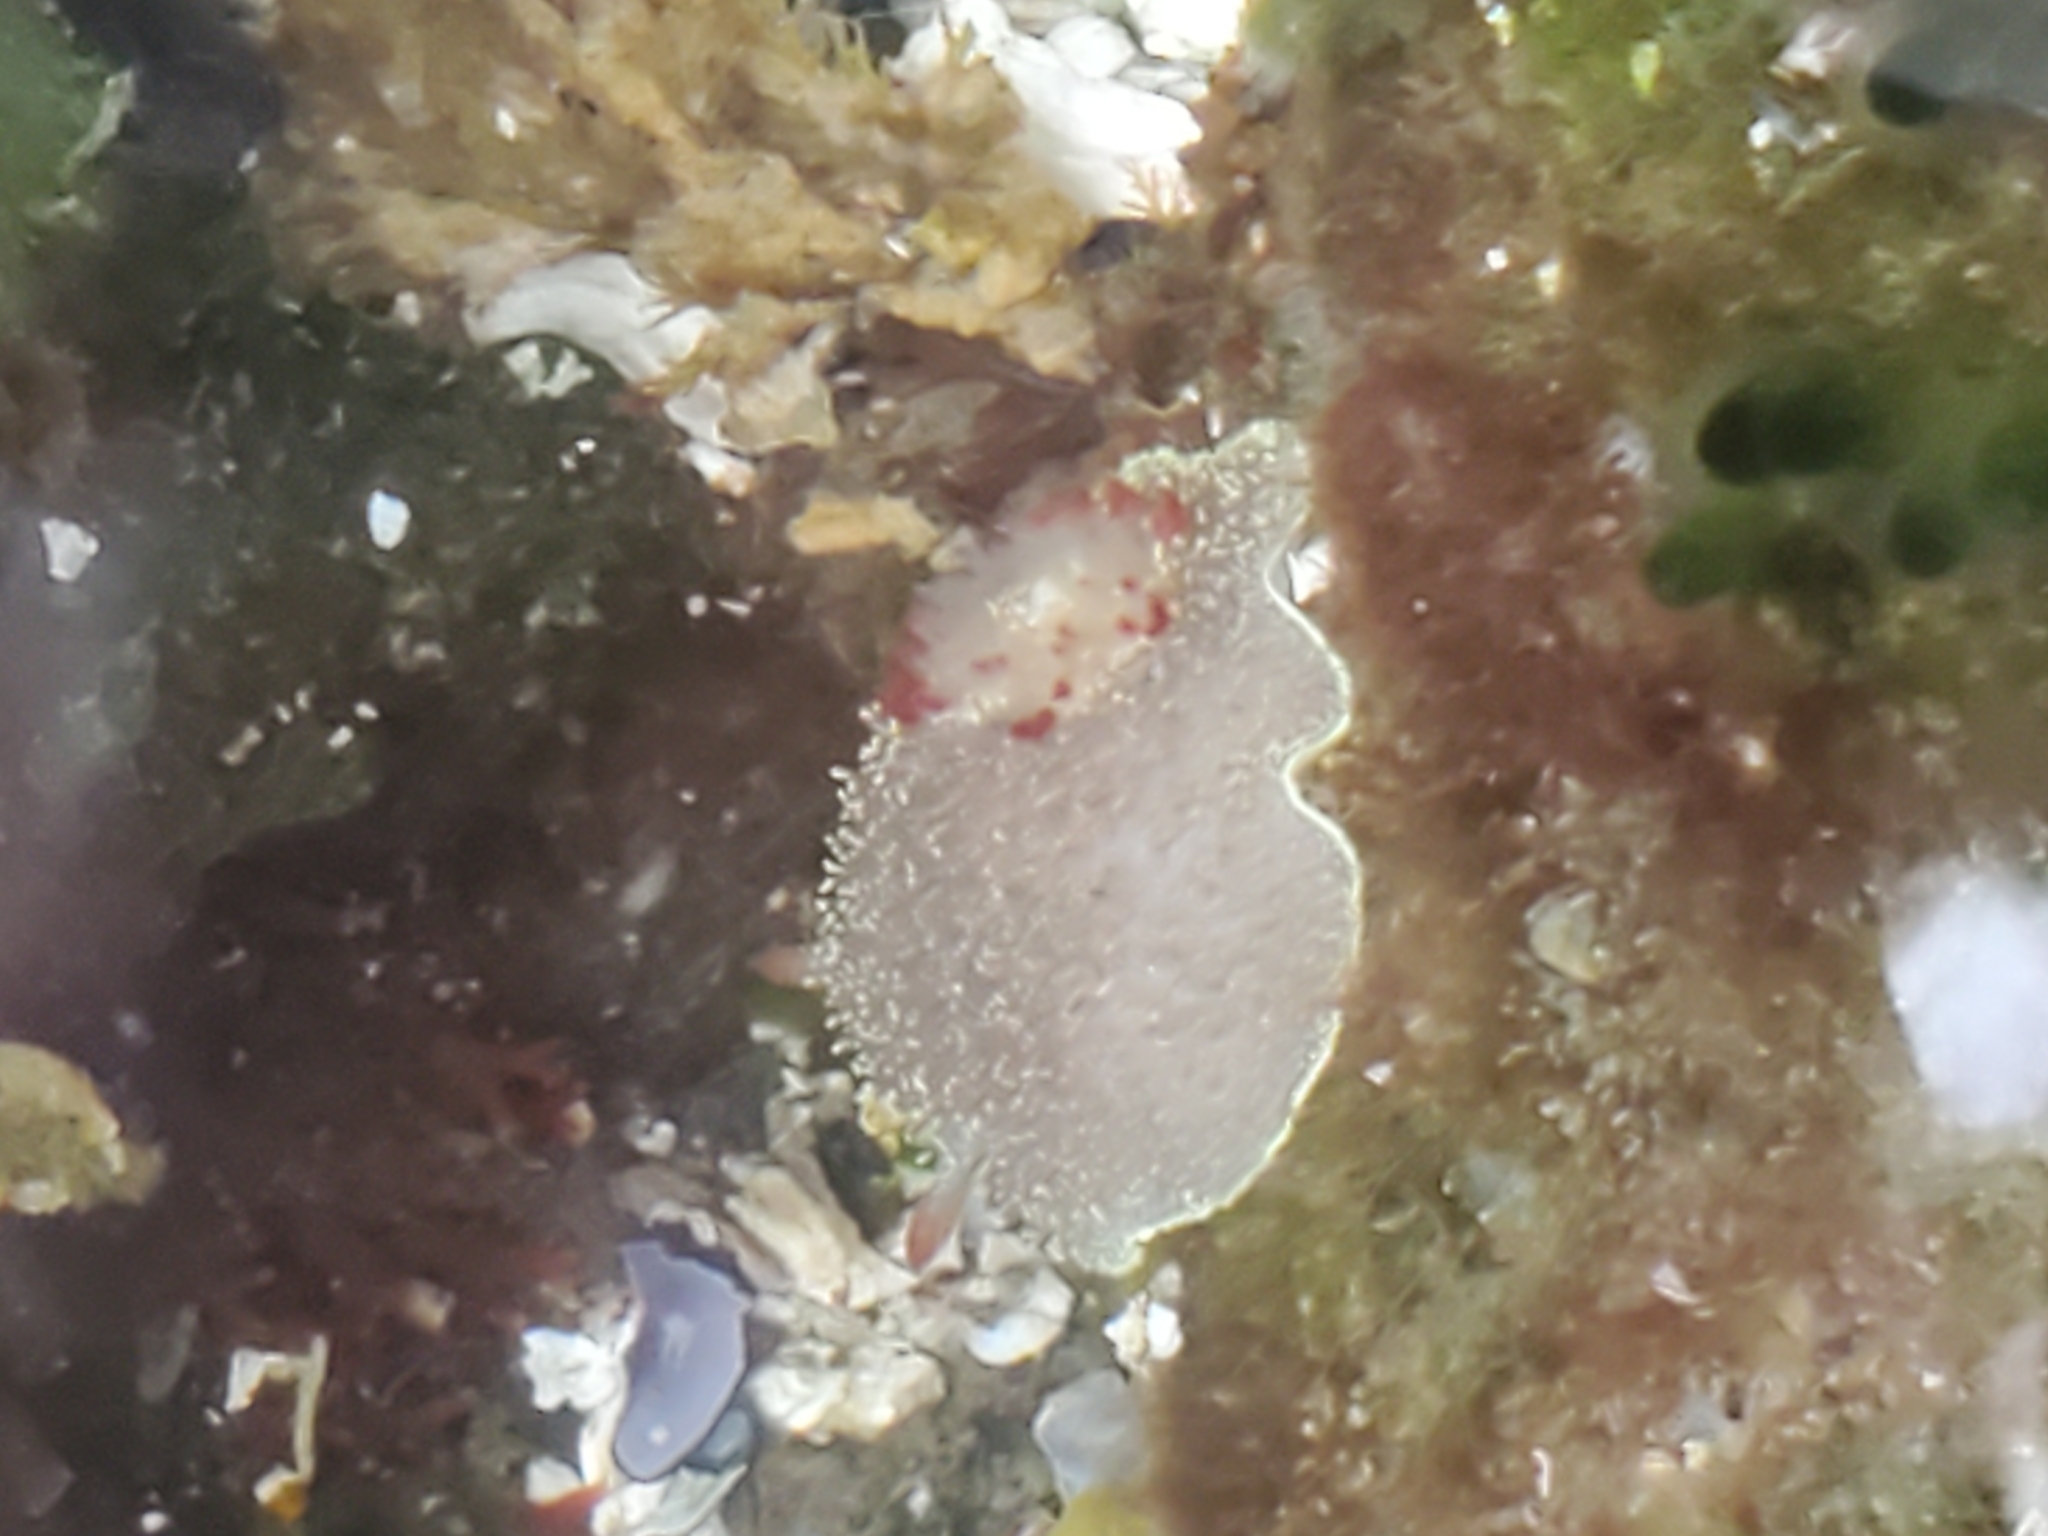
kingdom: Animalia
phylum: Mollusca
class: Gastropoda
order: Nudibranchia
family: Onchidorididae
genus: Acanthodoris
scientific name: Acanthodoris nanaimoensis
